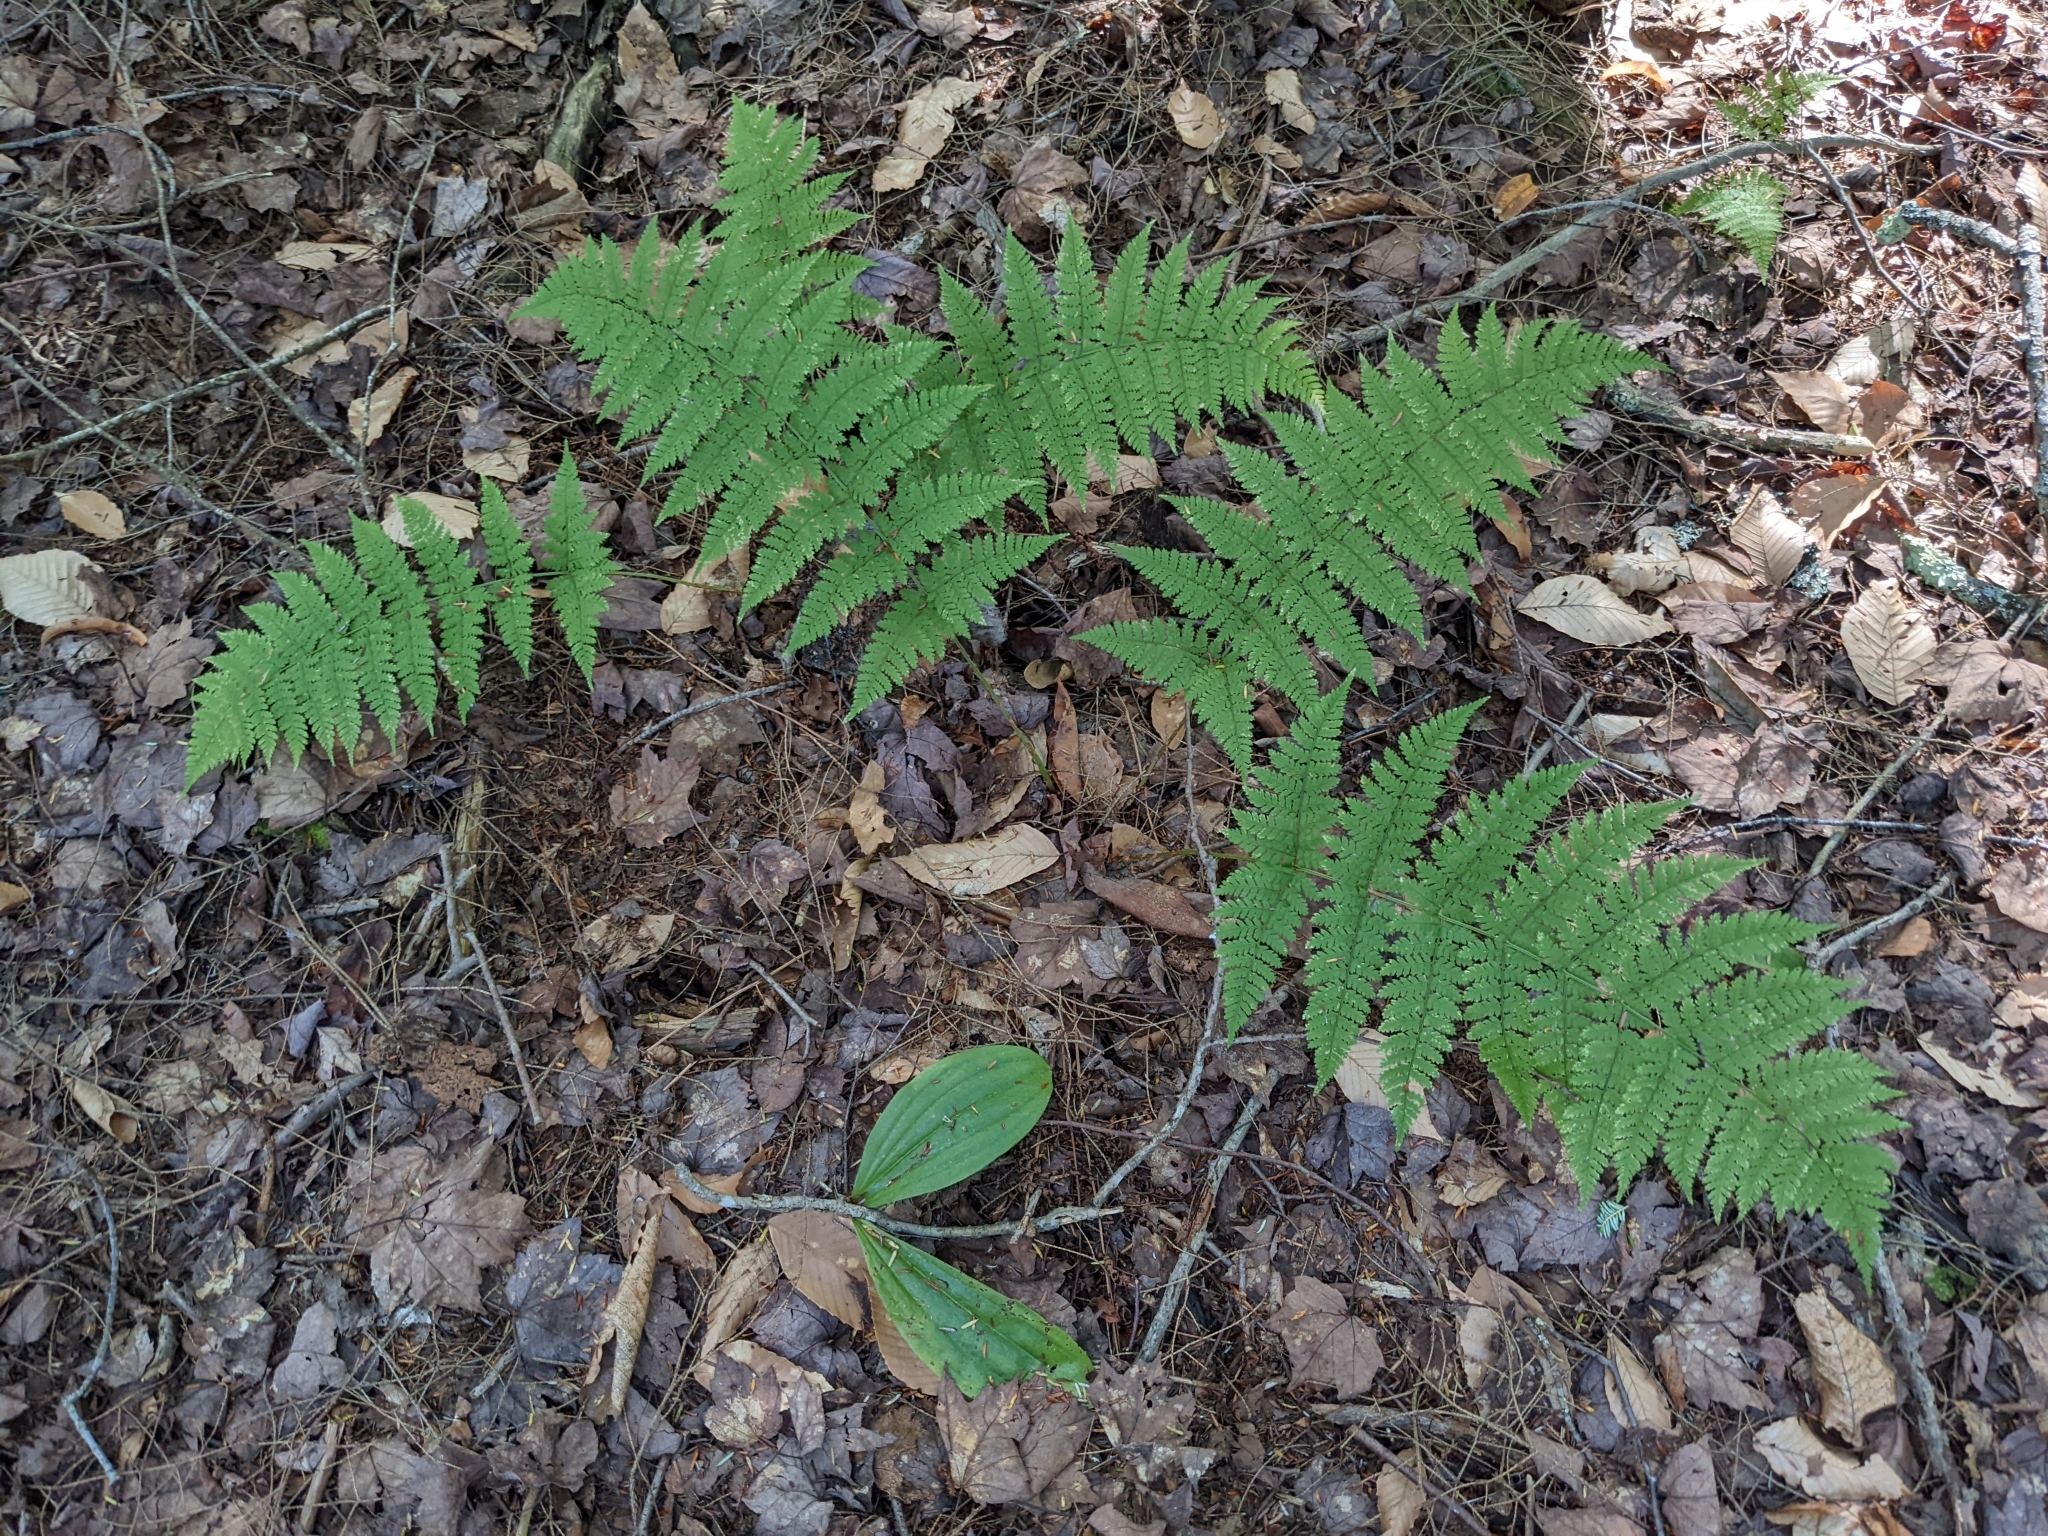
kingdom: Plantae
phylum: Tracheophyta
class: Polypodiopsida
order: Polypodiales
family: Dryopteridaceae
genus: Dryopteris
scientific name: Dryopteris intermedia
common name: Evergreen wood fern
